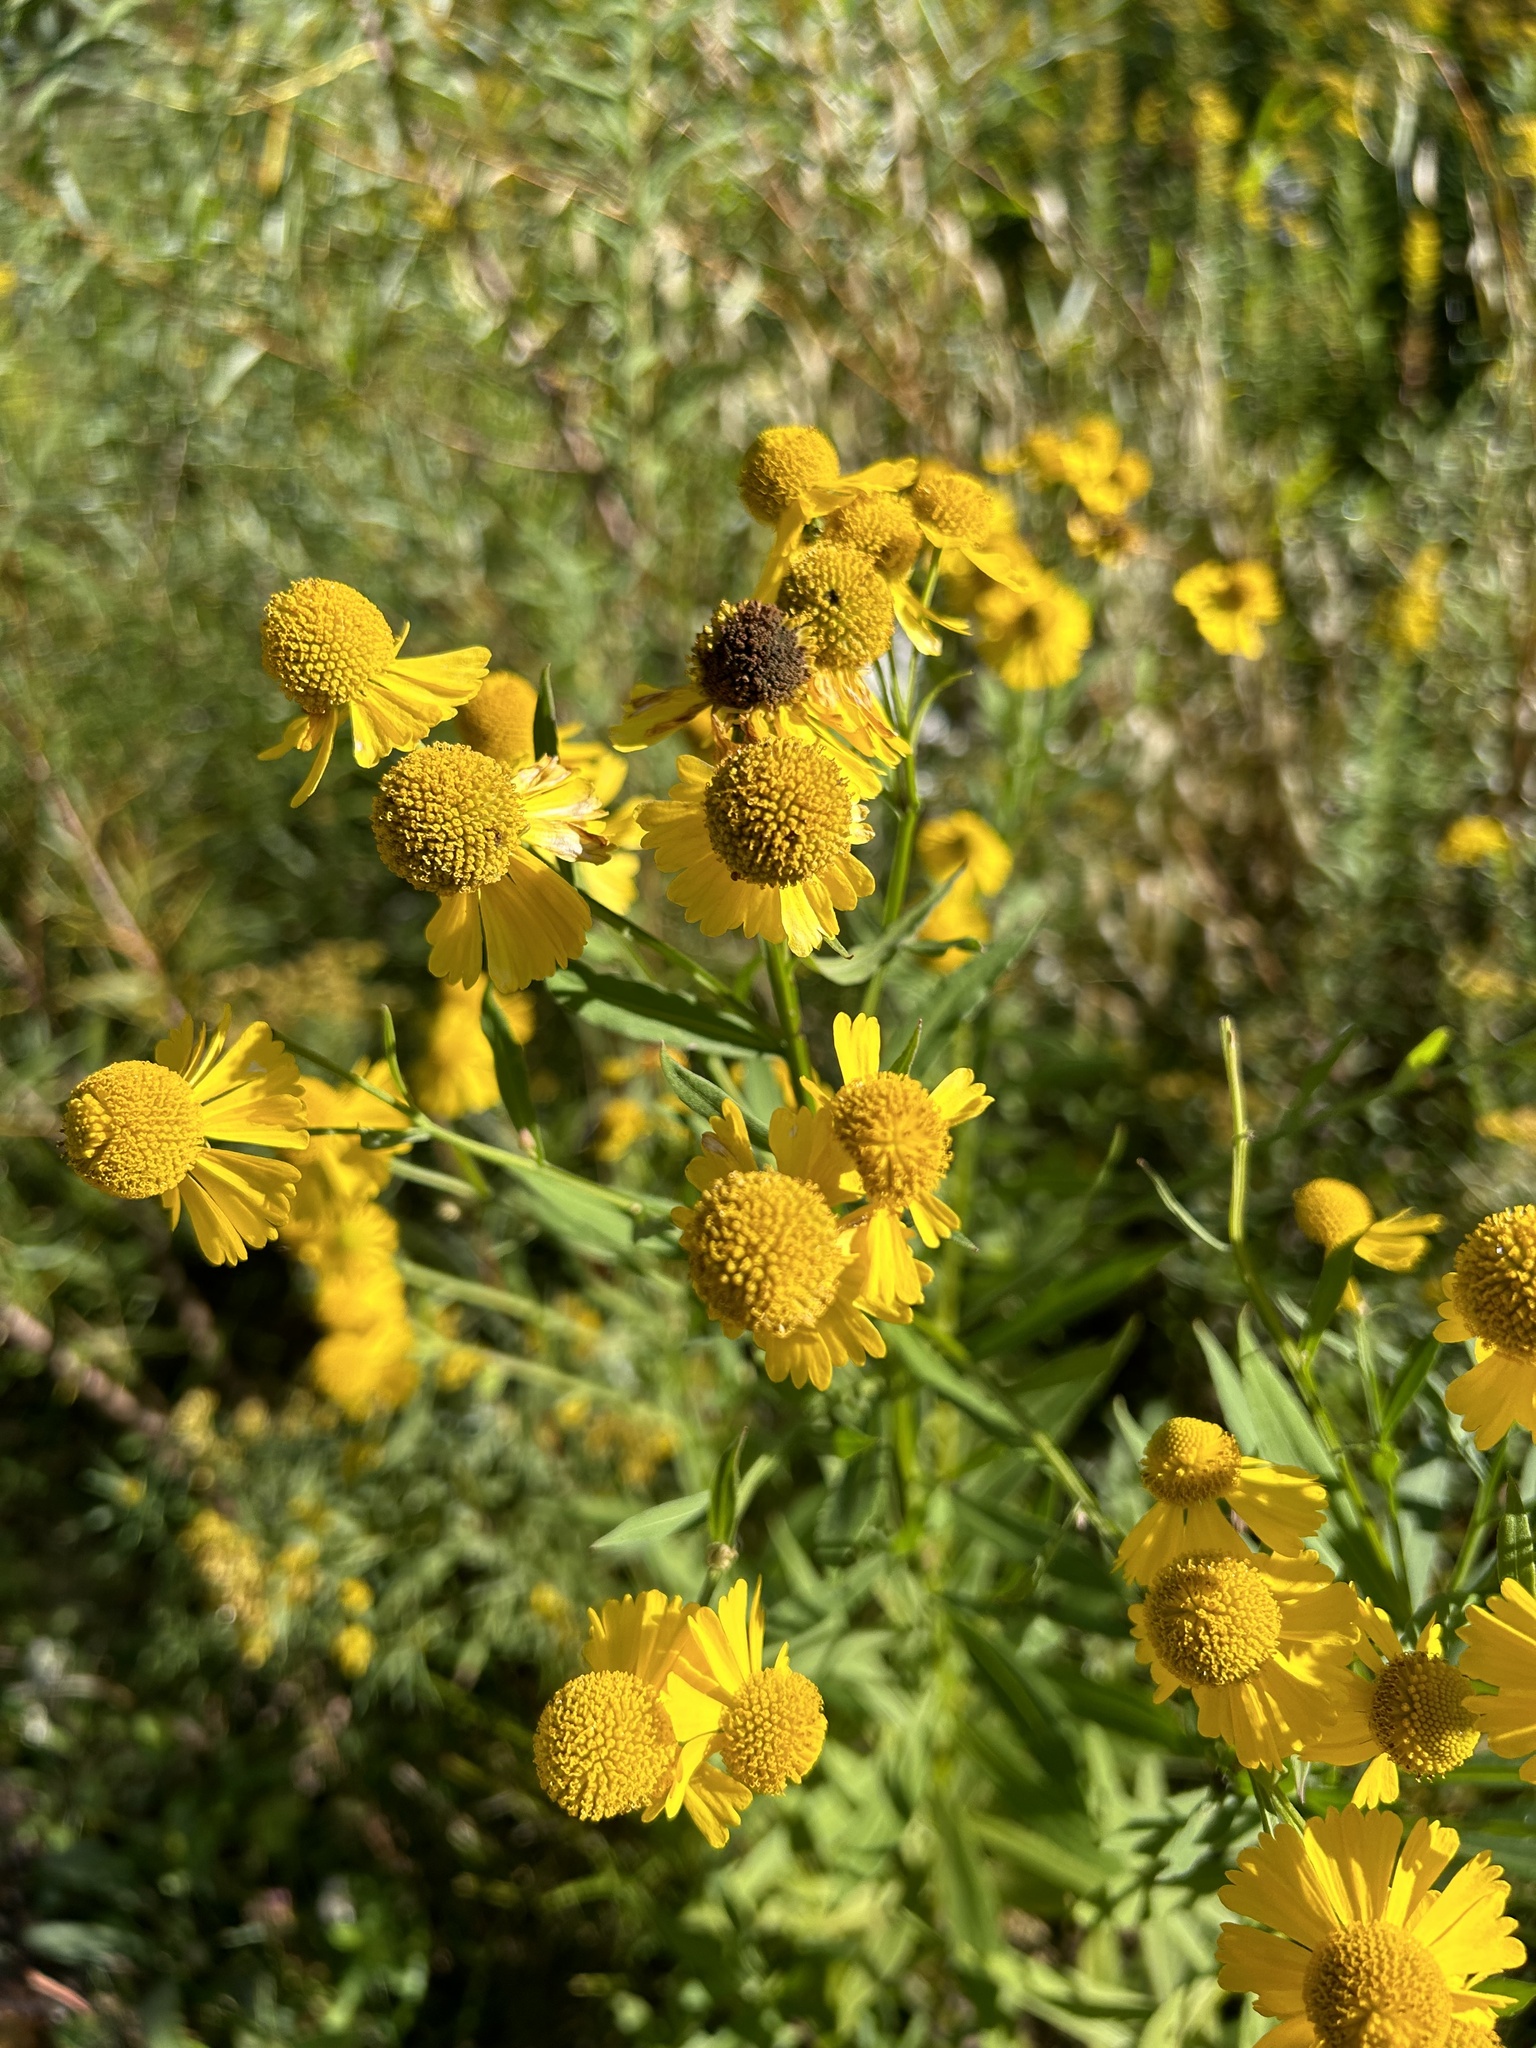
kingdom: Plantae
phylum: Tracheophyta
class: Magnoliopsida
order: Asterales
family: Asteraceae
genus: Helenium
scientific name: Helenium autumnale
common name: Sneezeweed
